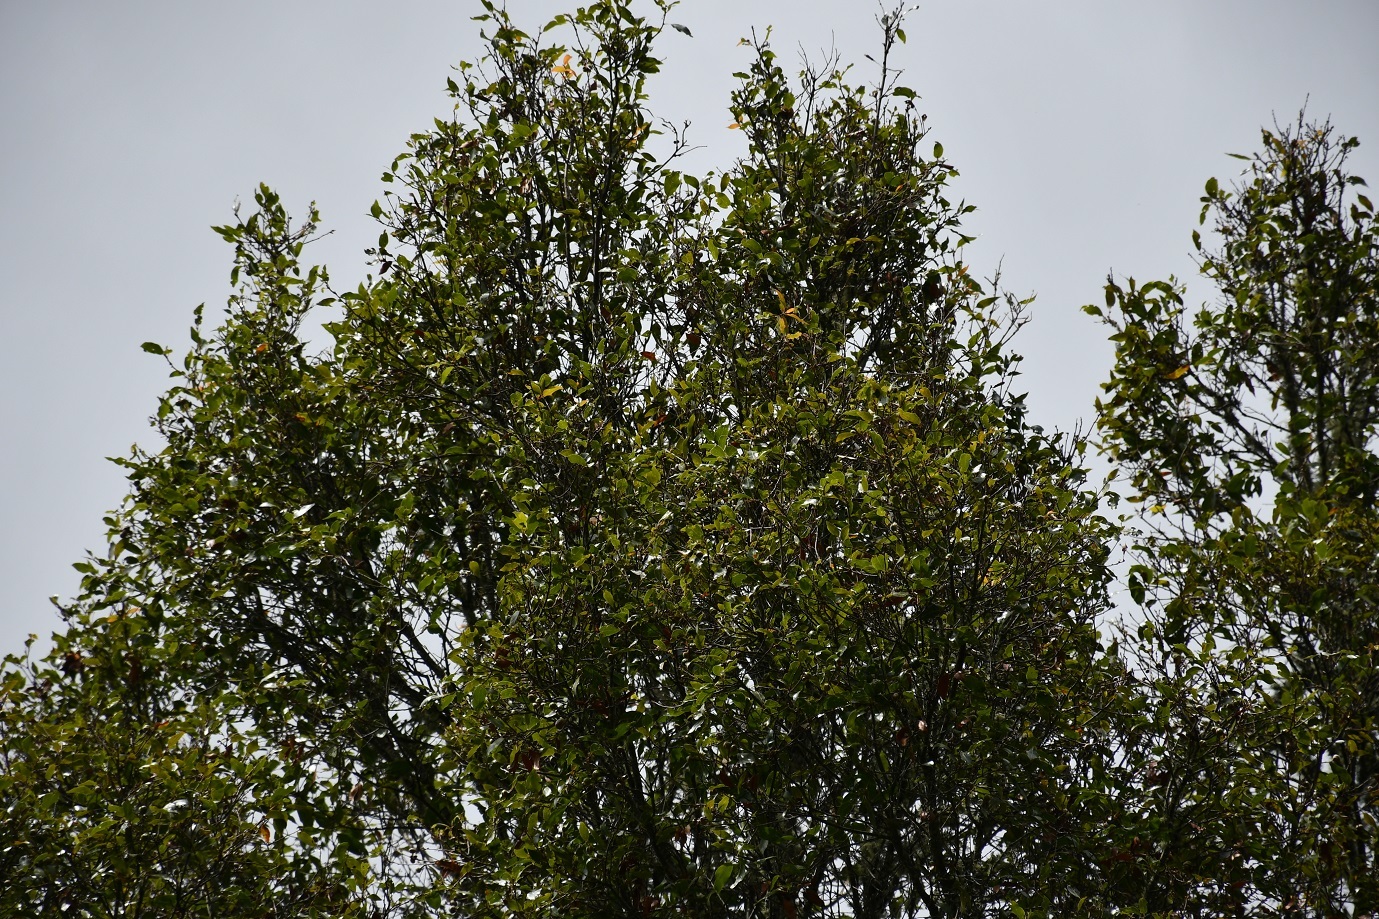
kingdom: Plantae
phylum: Tracheophyta
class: Magnoliopsida
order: Fagales
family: Fagaceae
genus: Quercus
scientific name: Quercus laurina
